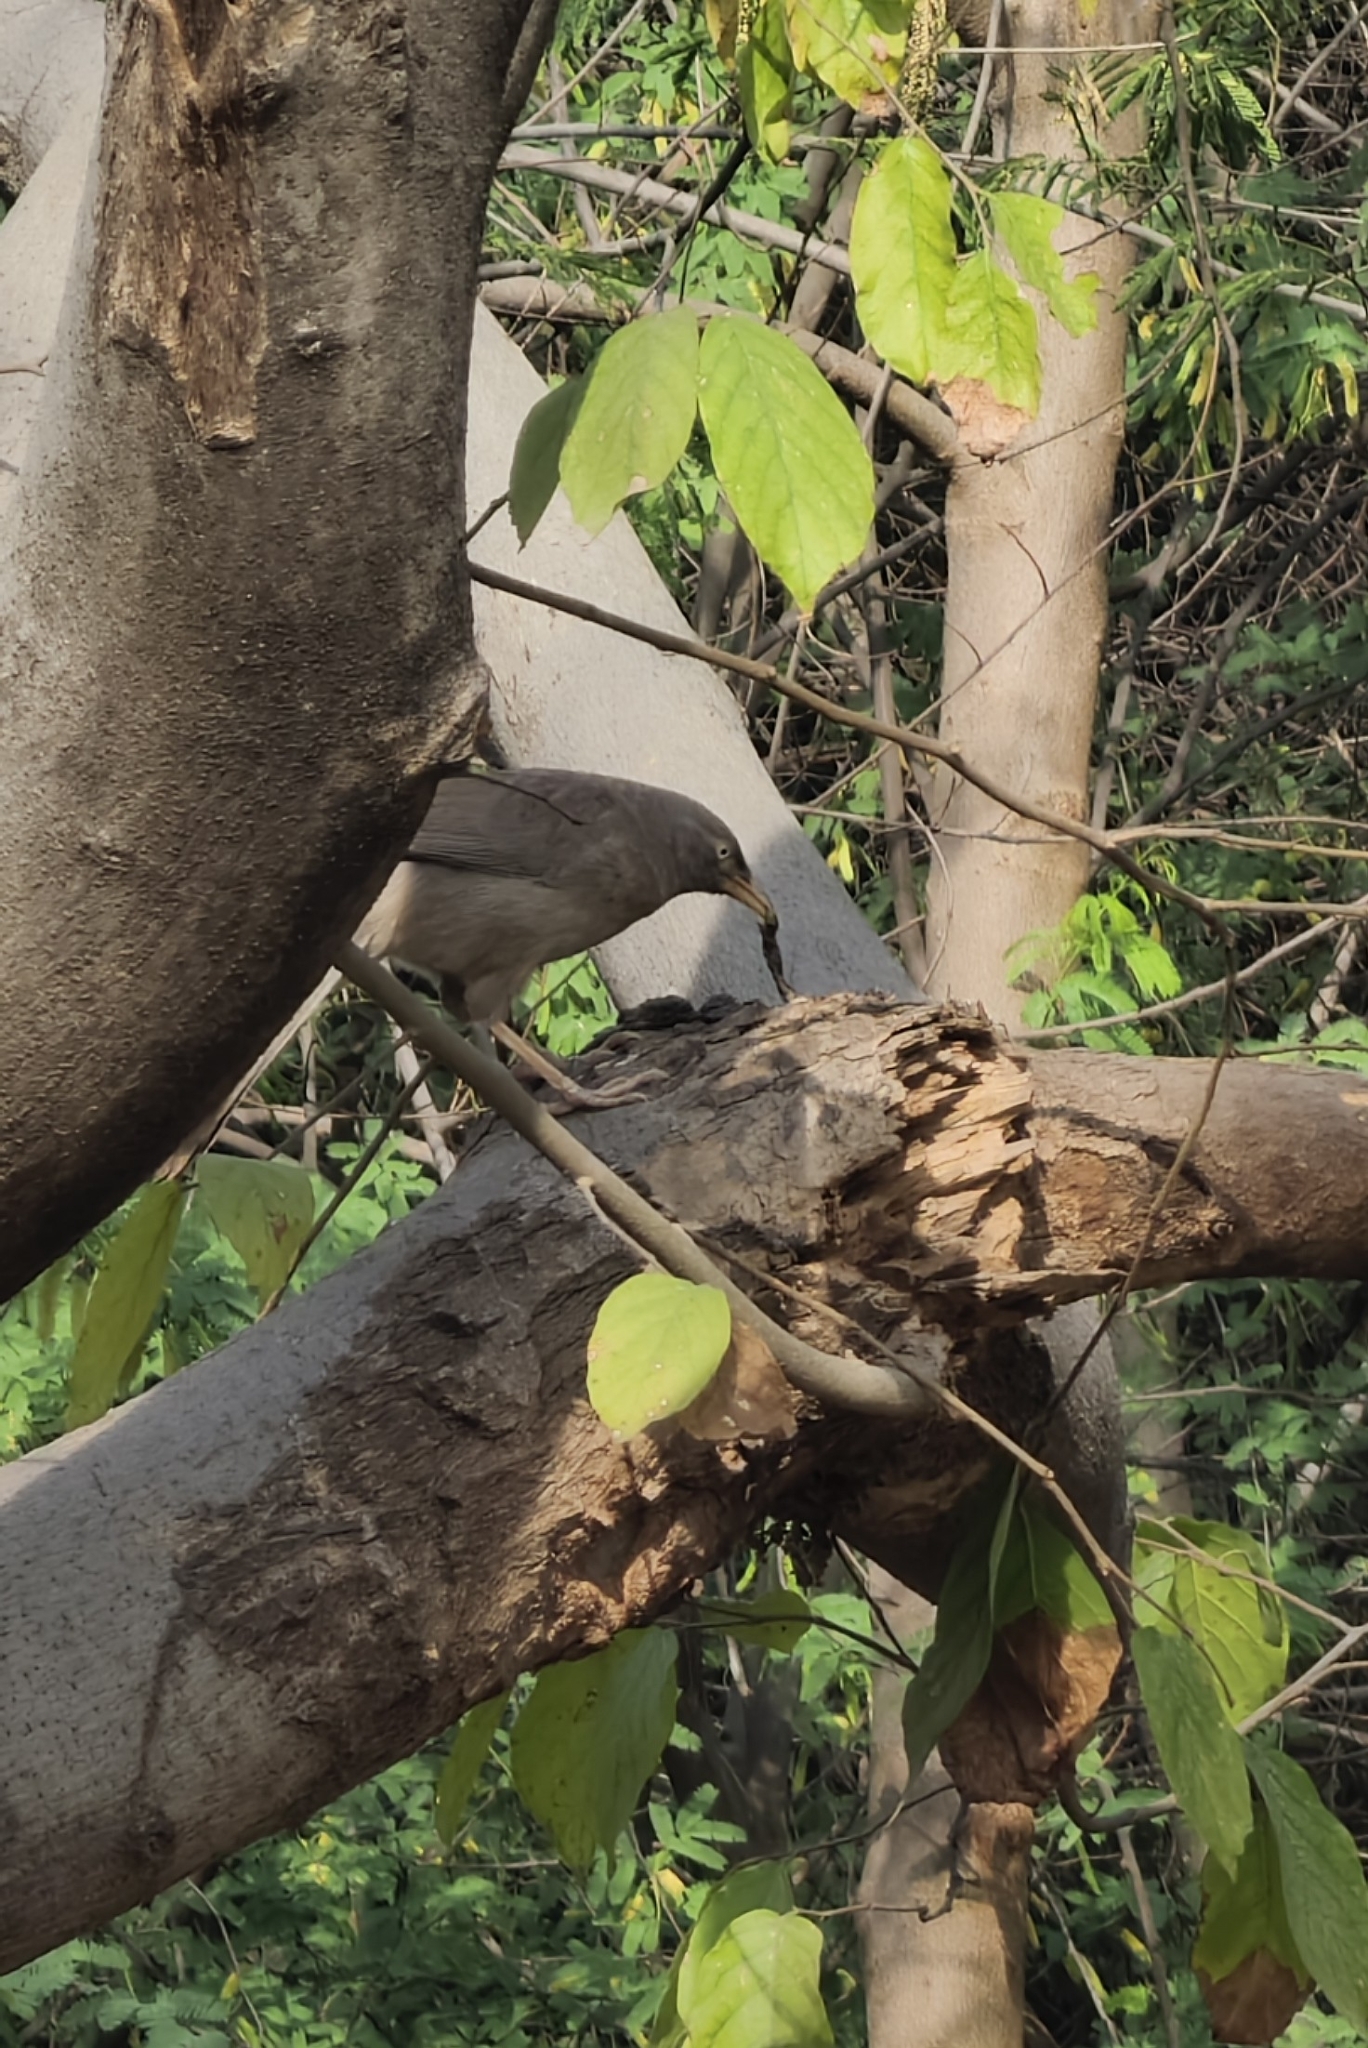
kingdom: Animalia
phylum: Chordata
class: Aves
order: Passeriformes
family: Leiothrichidae
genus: Turdoides
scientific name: Turdoides striata
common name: Jungle babbler
